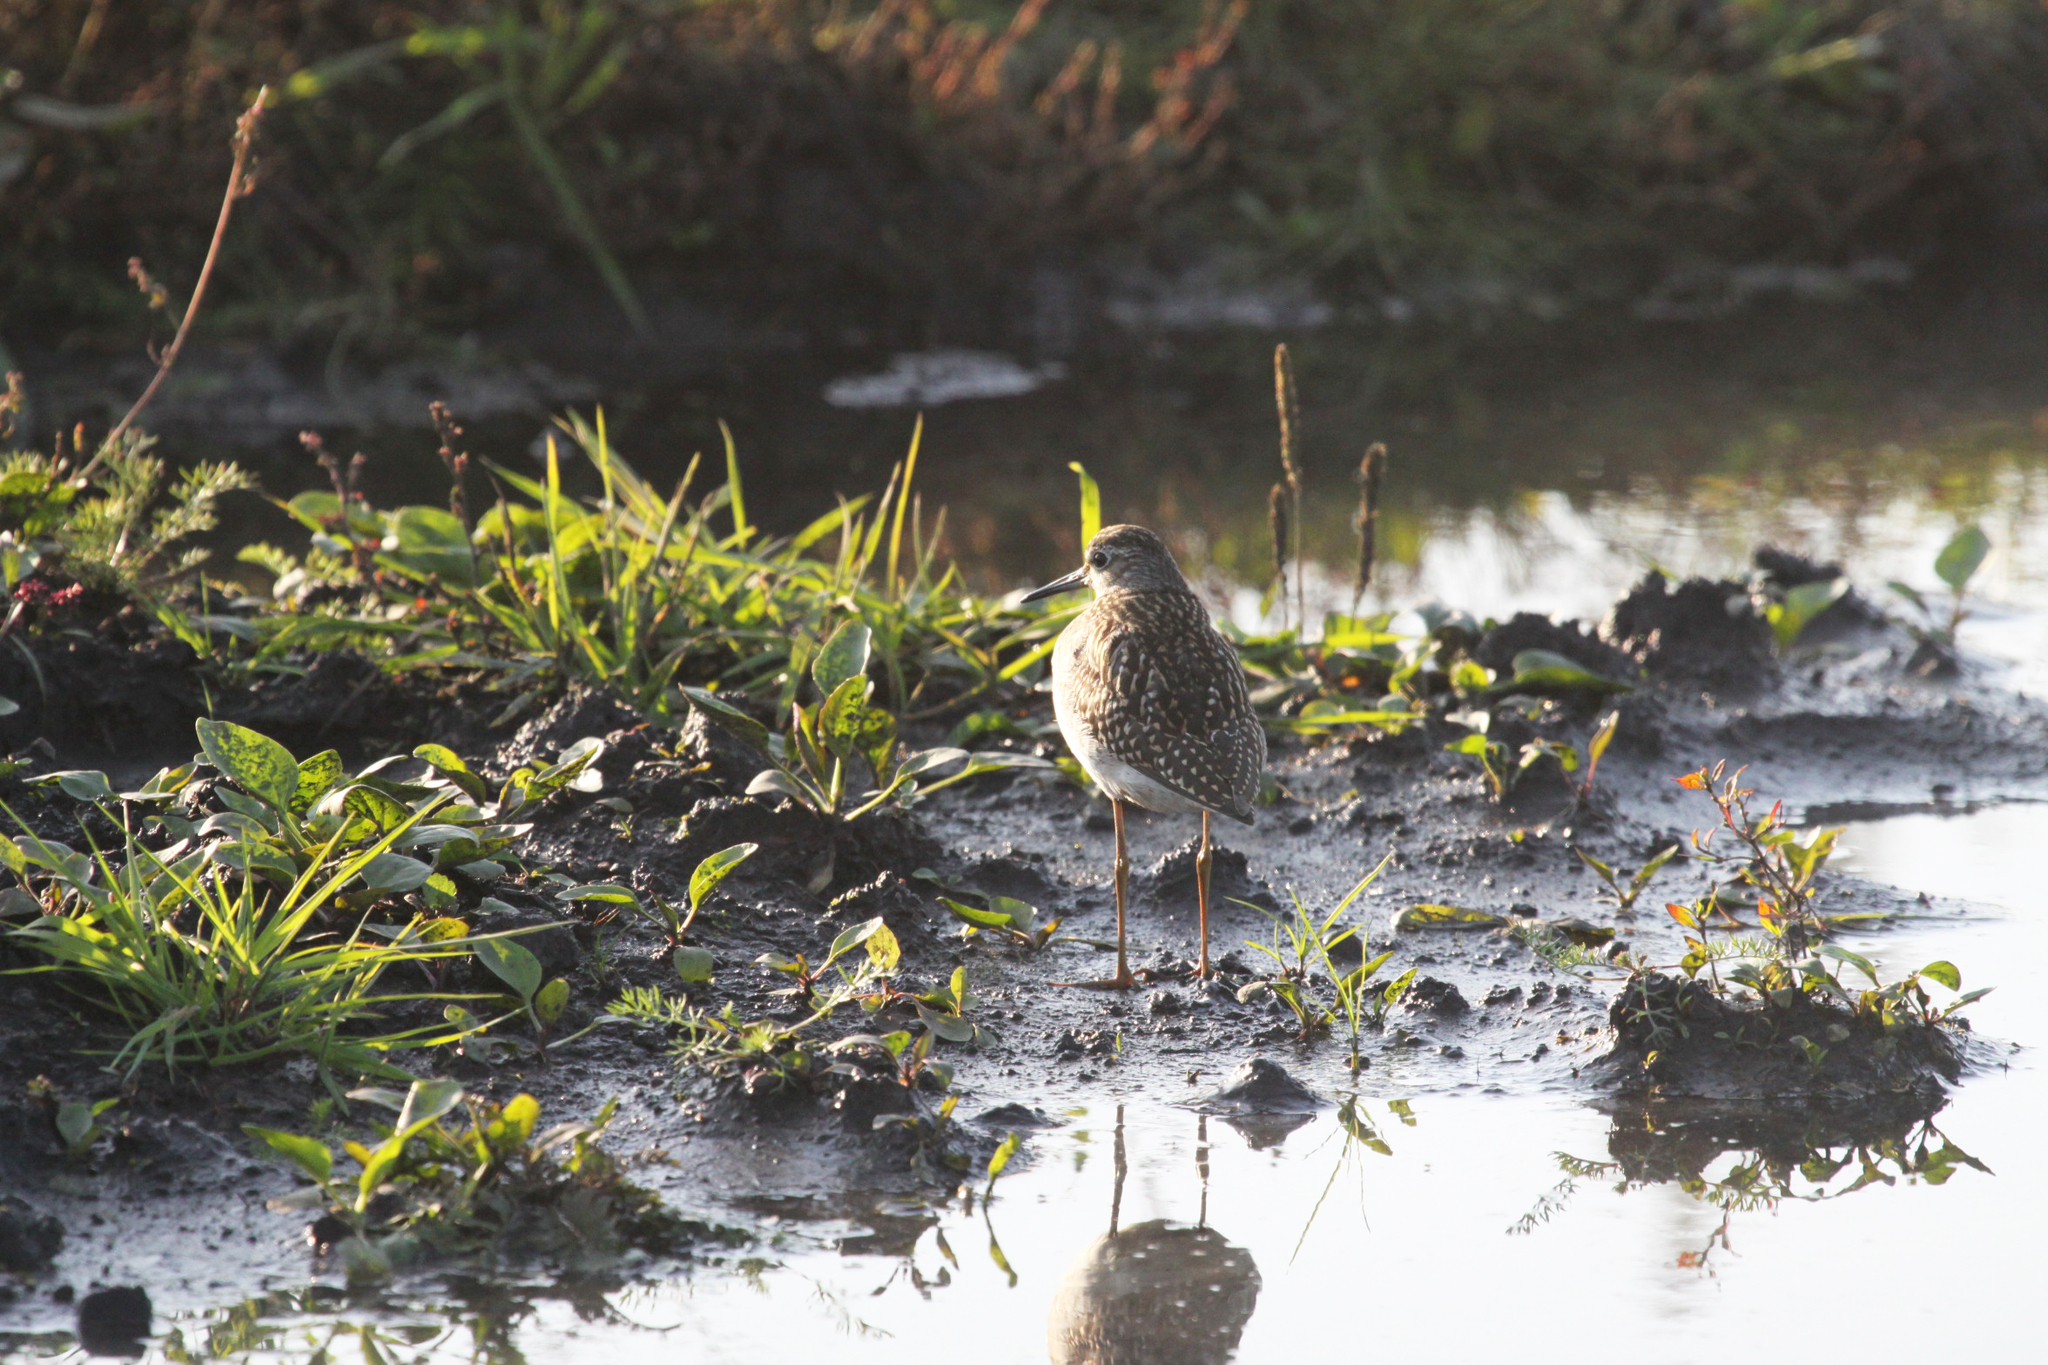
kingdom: Animalia
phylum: Chordata
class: Aves
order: Charadriiformes
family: Scolopacidae
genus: Tringa
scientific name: Tringa glareola
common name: Wood sandpiper
